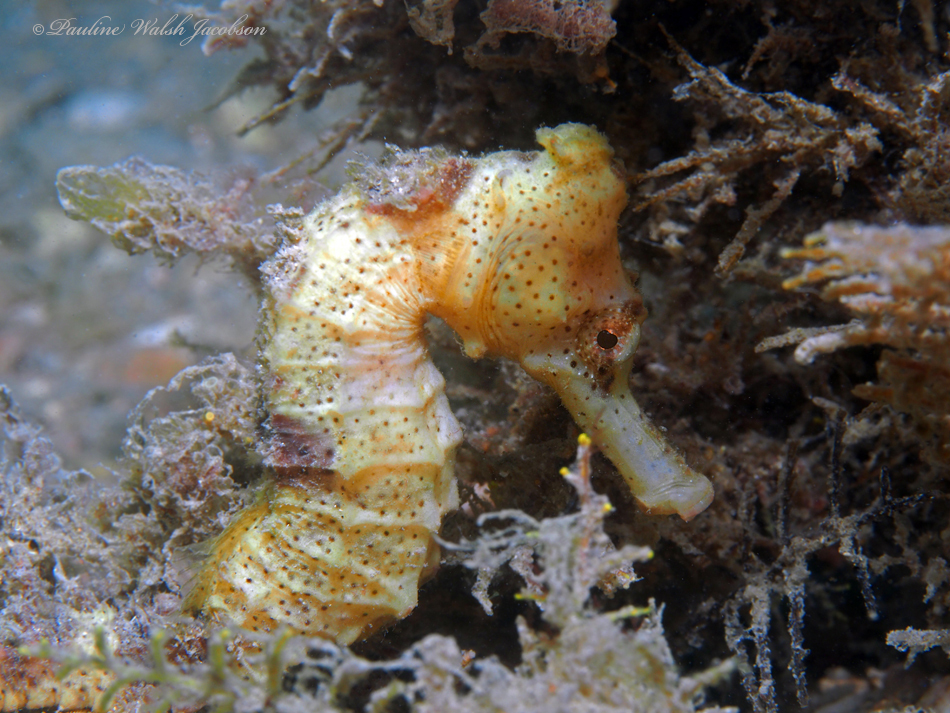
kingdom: Animalia
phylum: Chordata
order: Syngnathiformes
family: Syngnathidae
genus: Hippocampus
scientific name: Hippocampus reidi
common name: Slender seahorse
